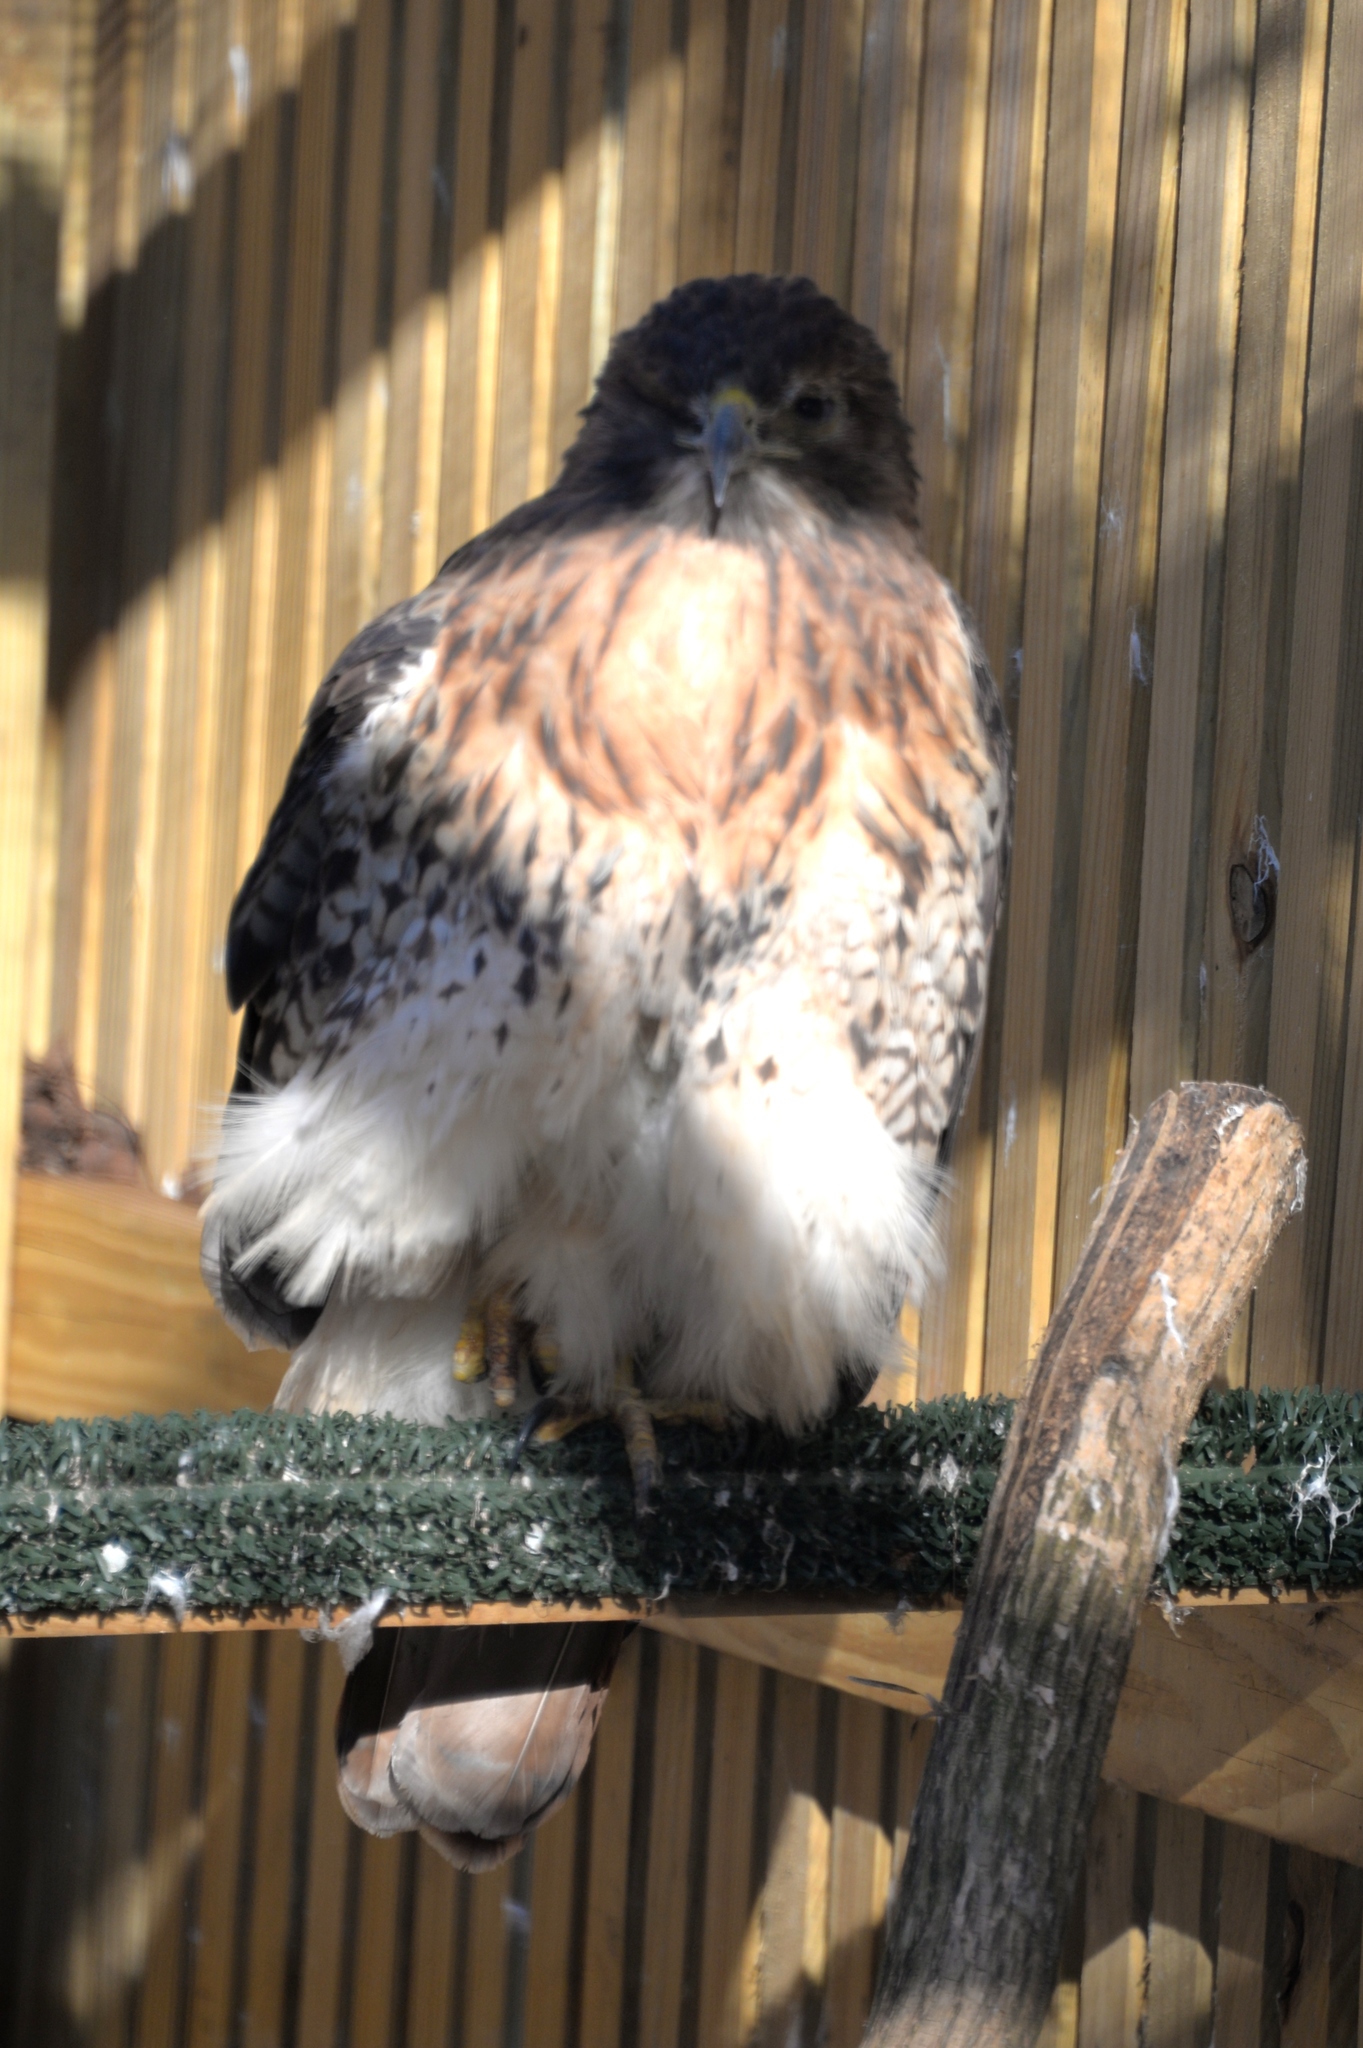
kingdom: Animalia
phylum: Chordata
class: Aves
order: Accipitriformes
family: Accipitridae
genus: Buteo
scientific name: Buteo jamaicensis
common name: Red-tailed hawk
